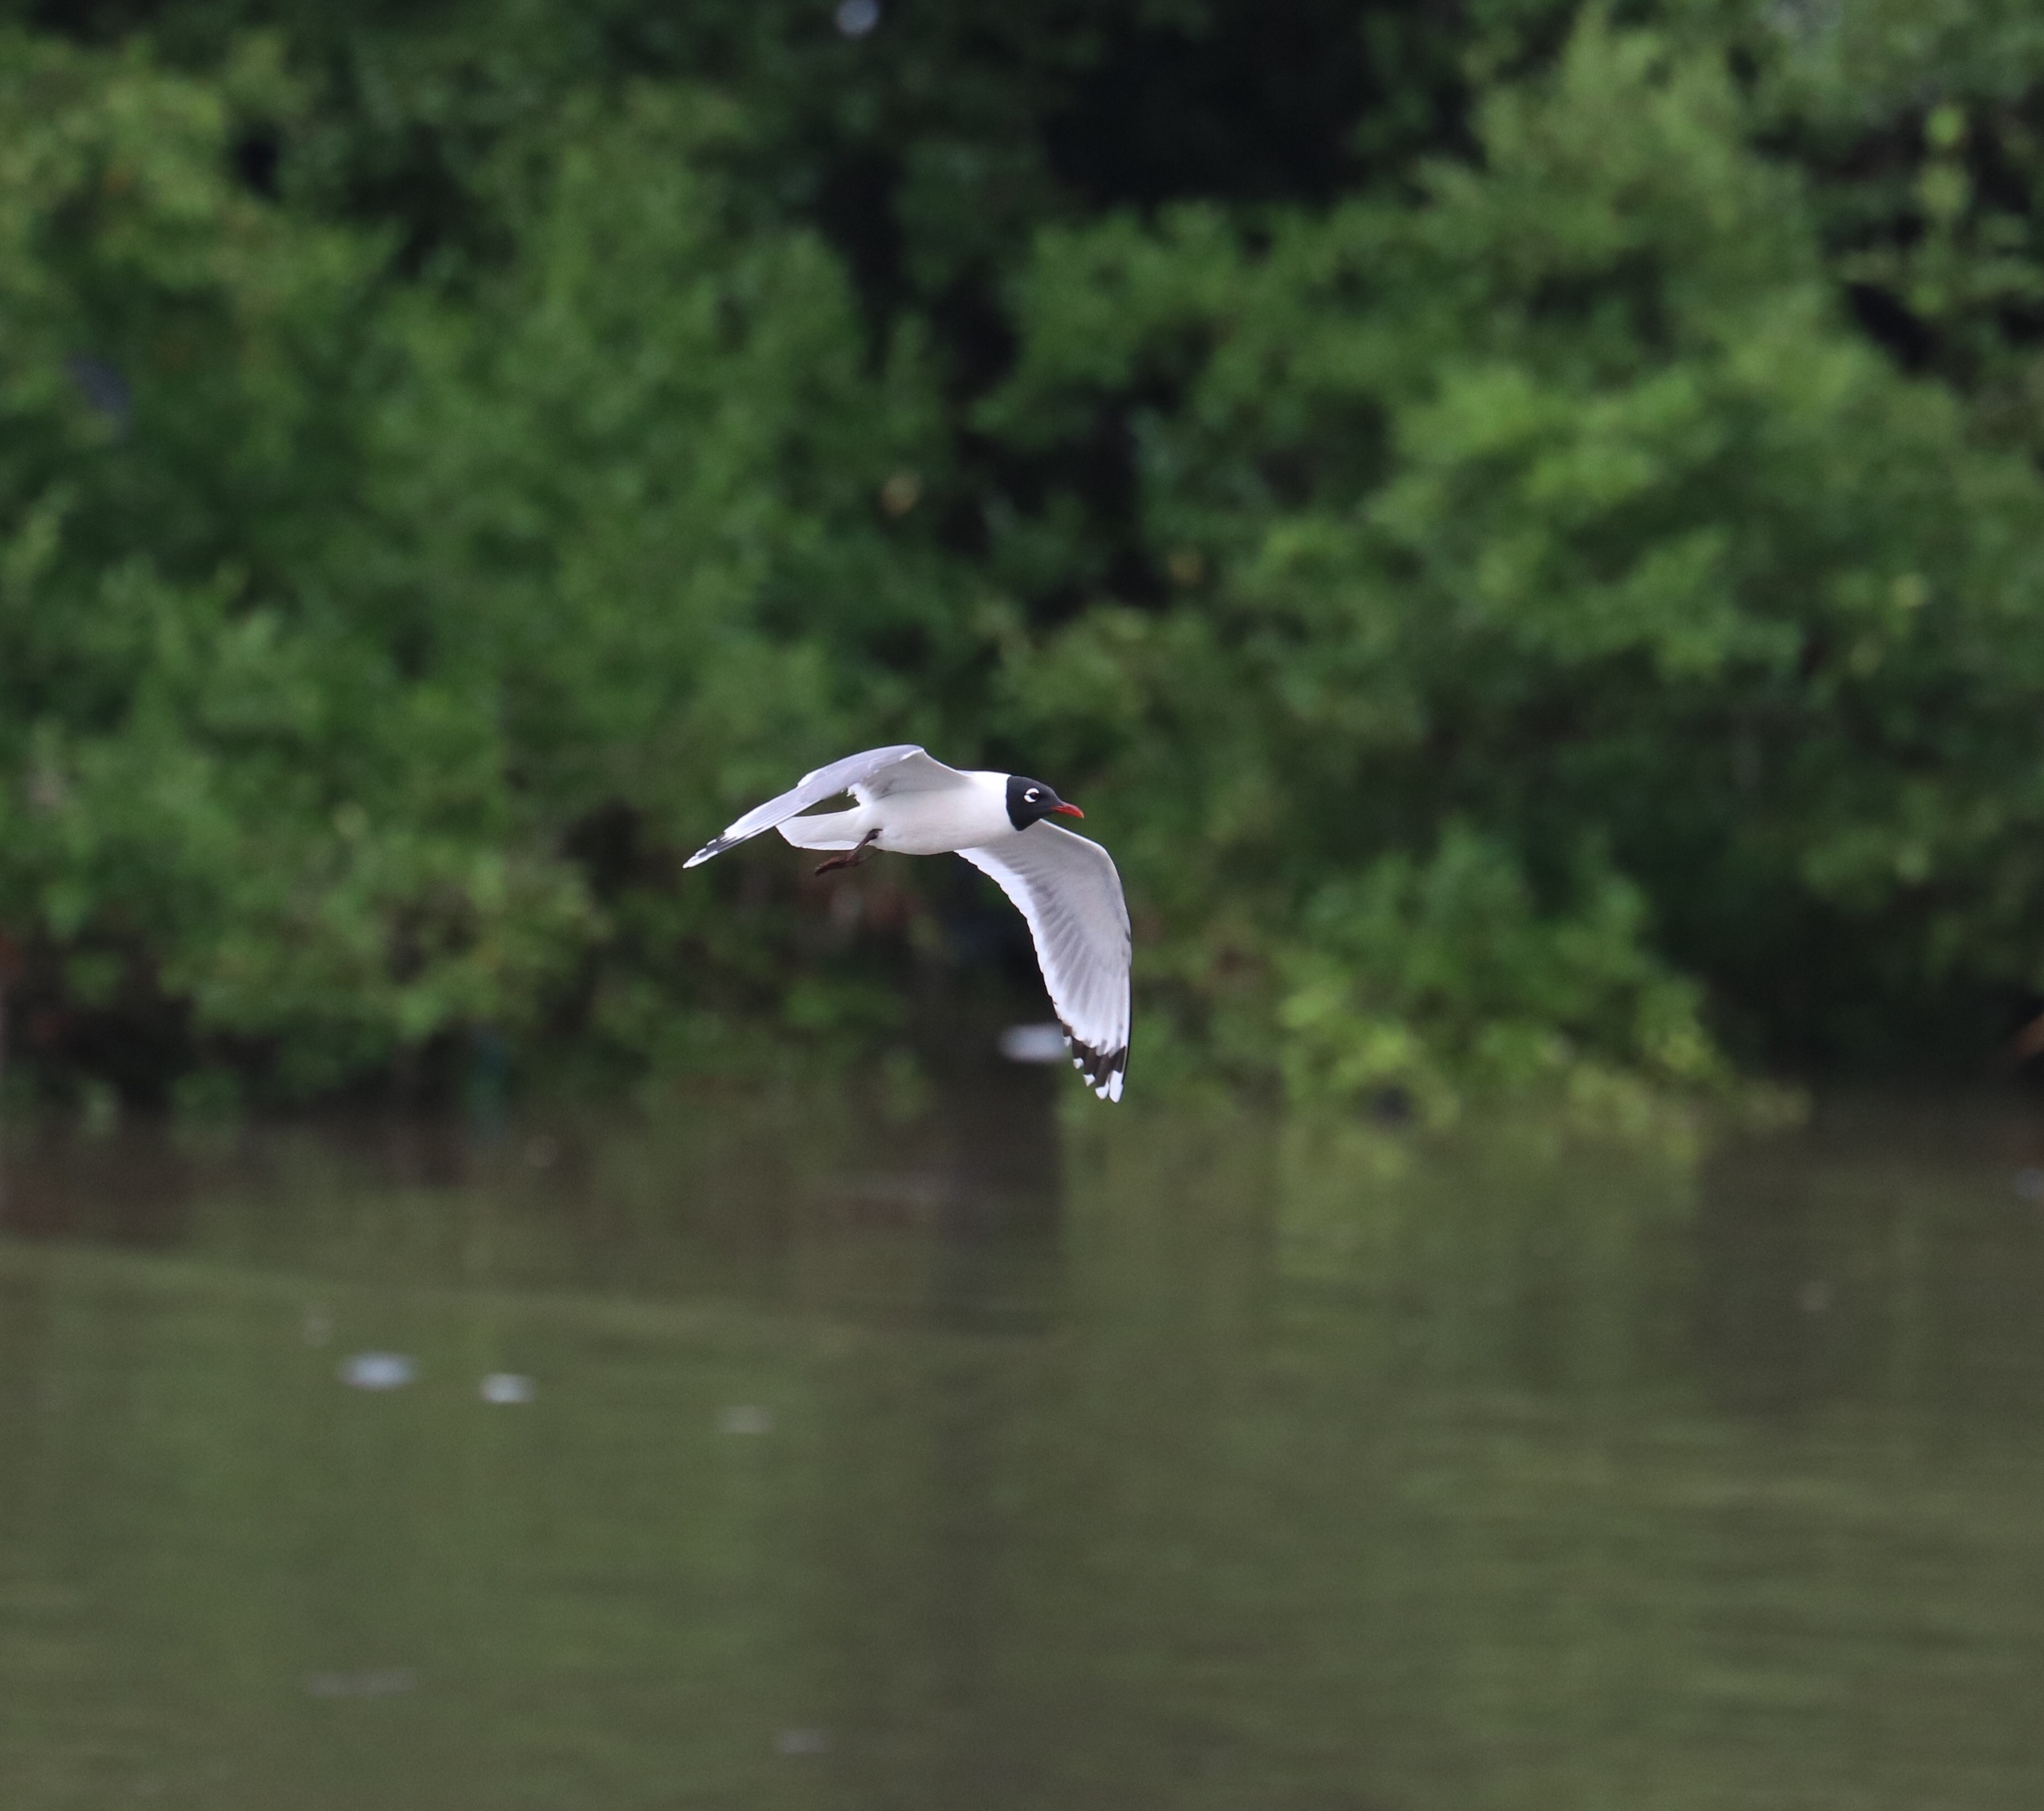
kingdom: Animalia
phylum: Chordata
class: Aves
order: Charadriiformes
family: Laridae
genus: Leucophaeus
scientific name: Leucophaeus pipixcan
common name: Franklin's gull
